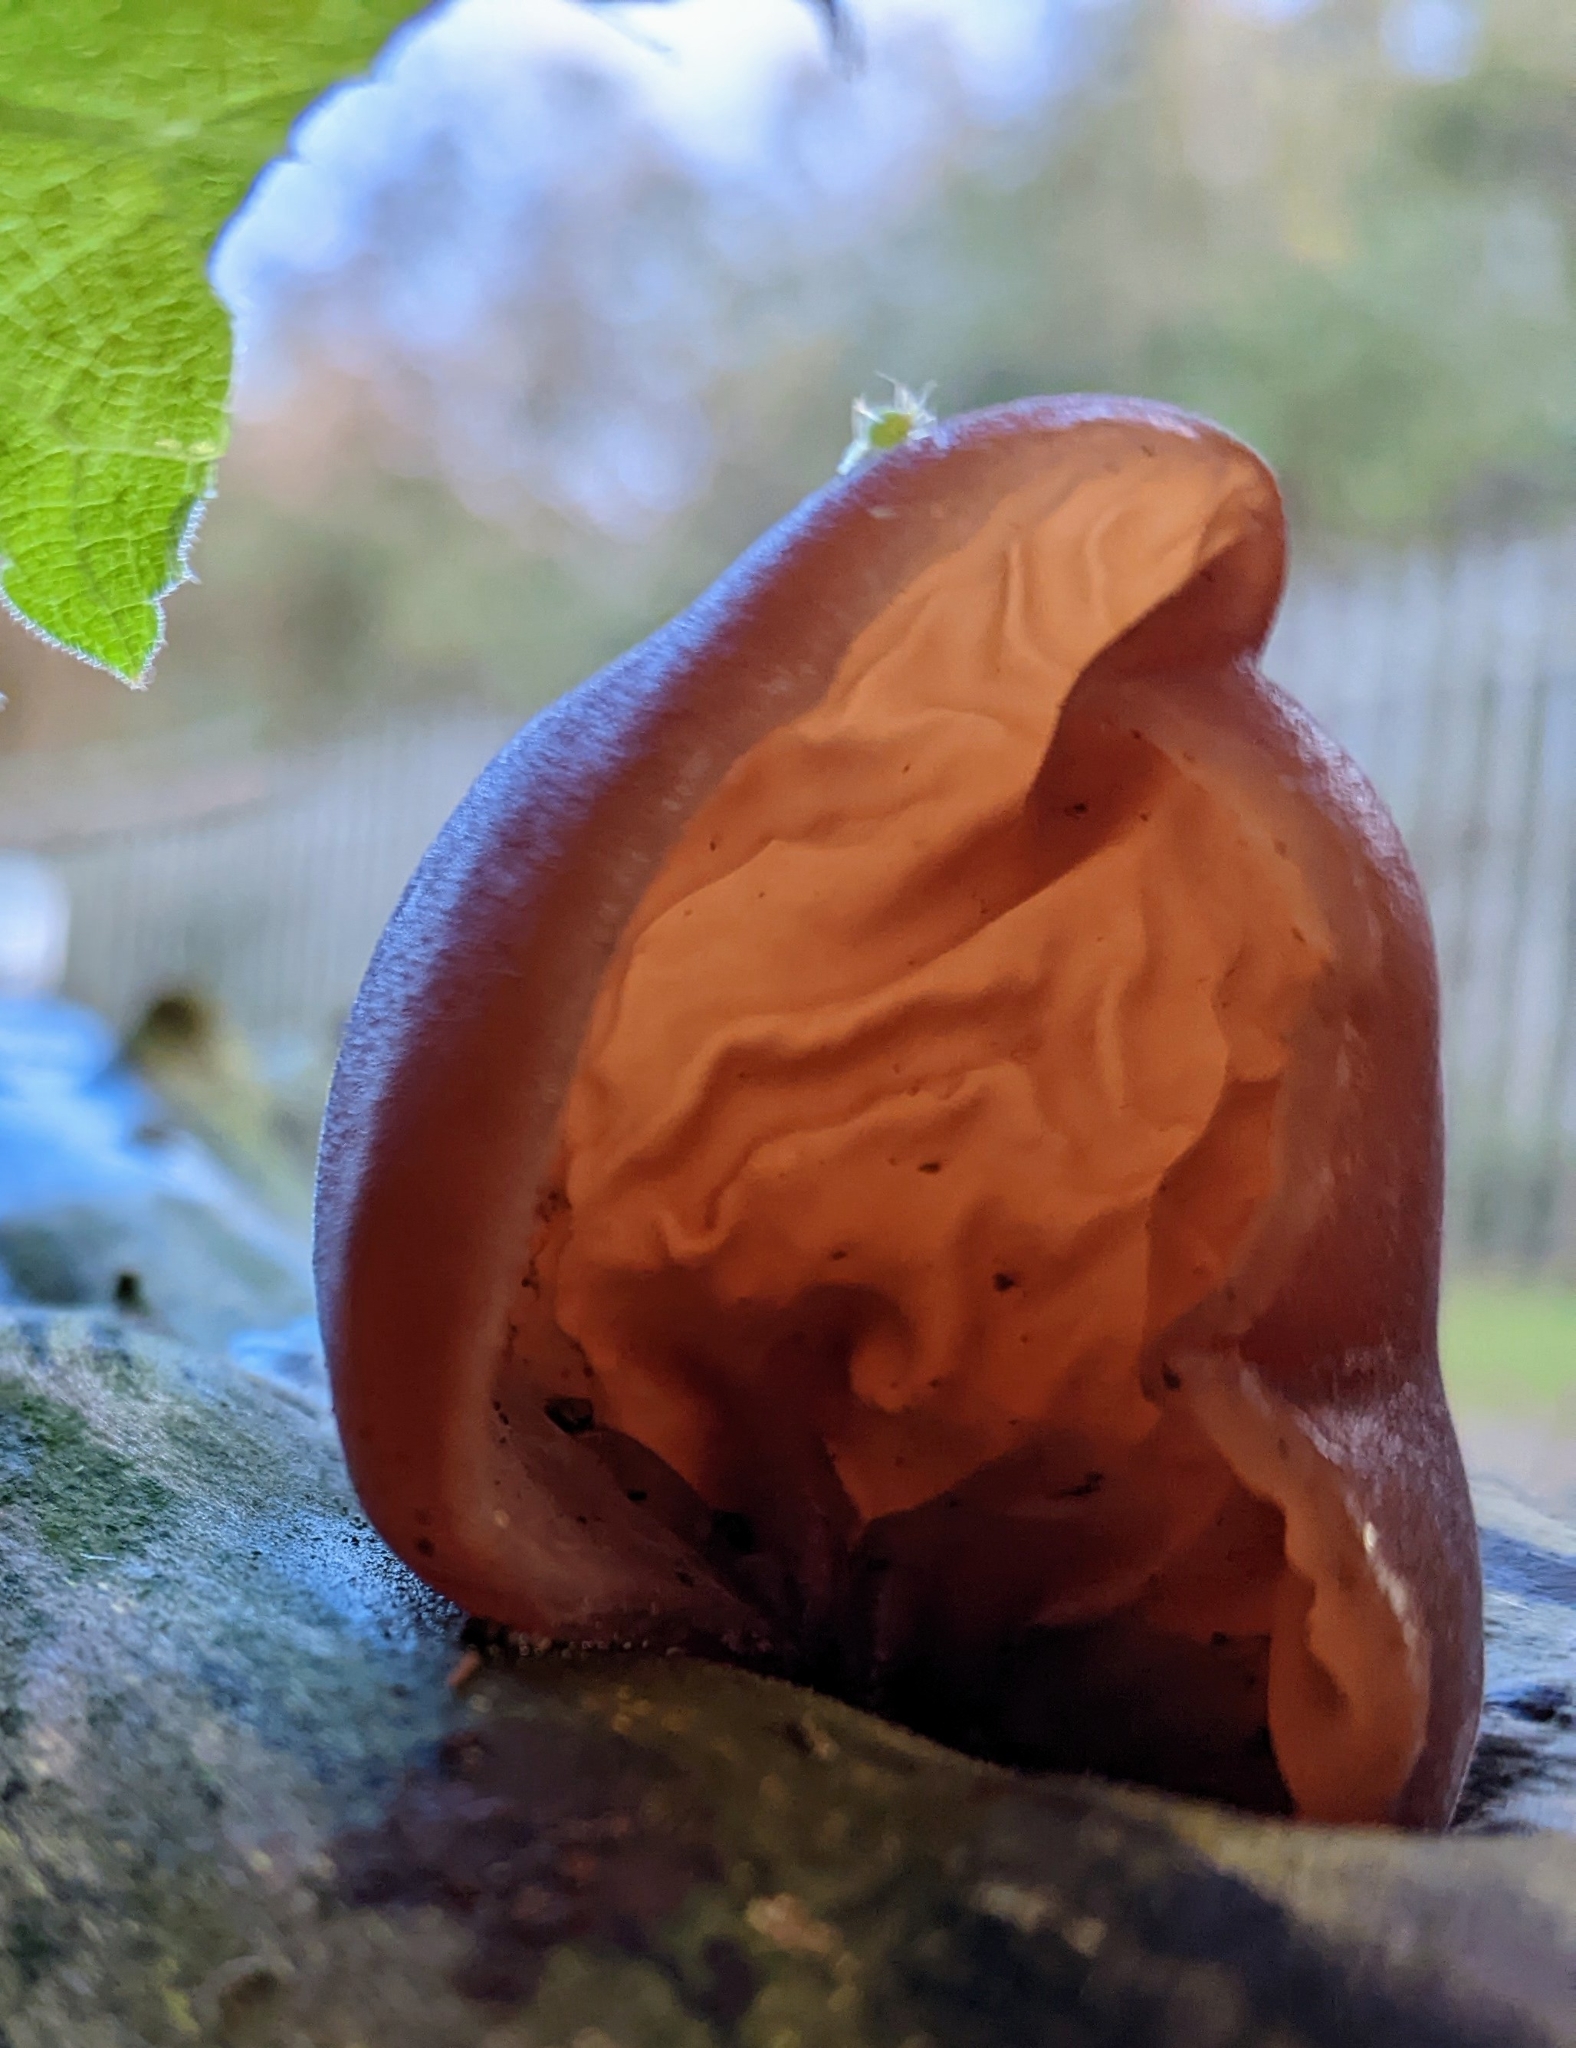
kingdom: Fungi
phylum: Basidiomycota
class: Agaricomycetes
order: Auriculariales
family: Auriculariaceae
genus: Auricularia
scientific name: Auricularia auricula-judae
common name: Jelly ear
